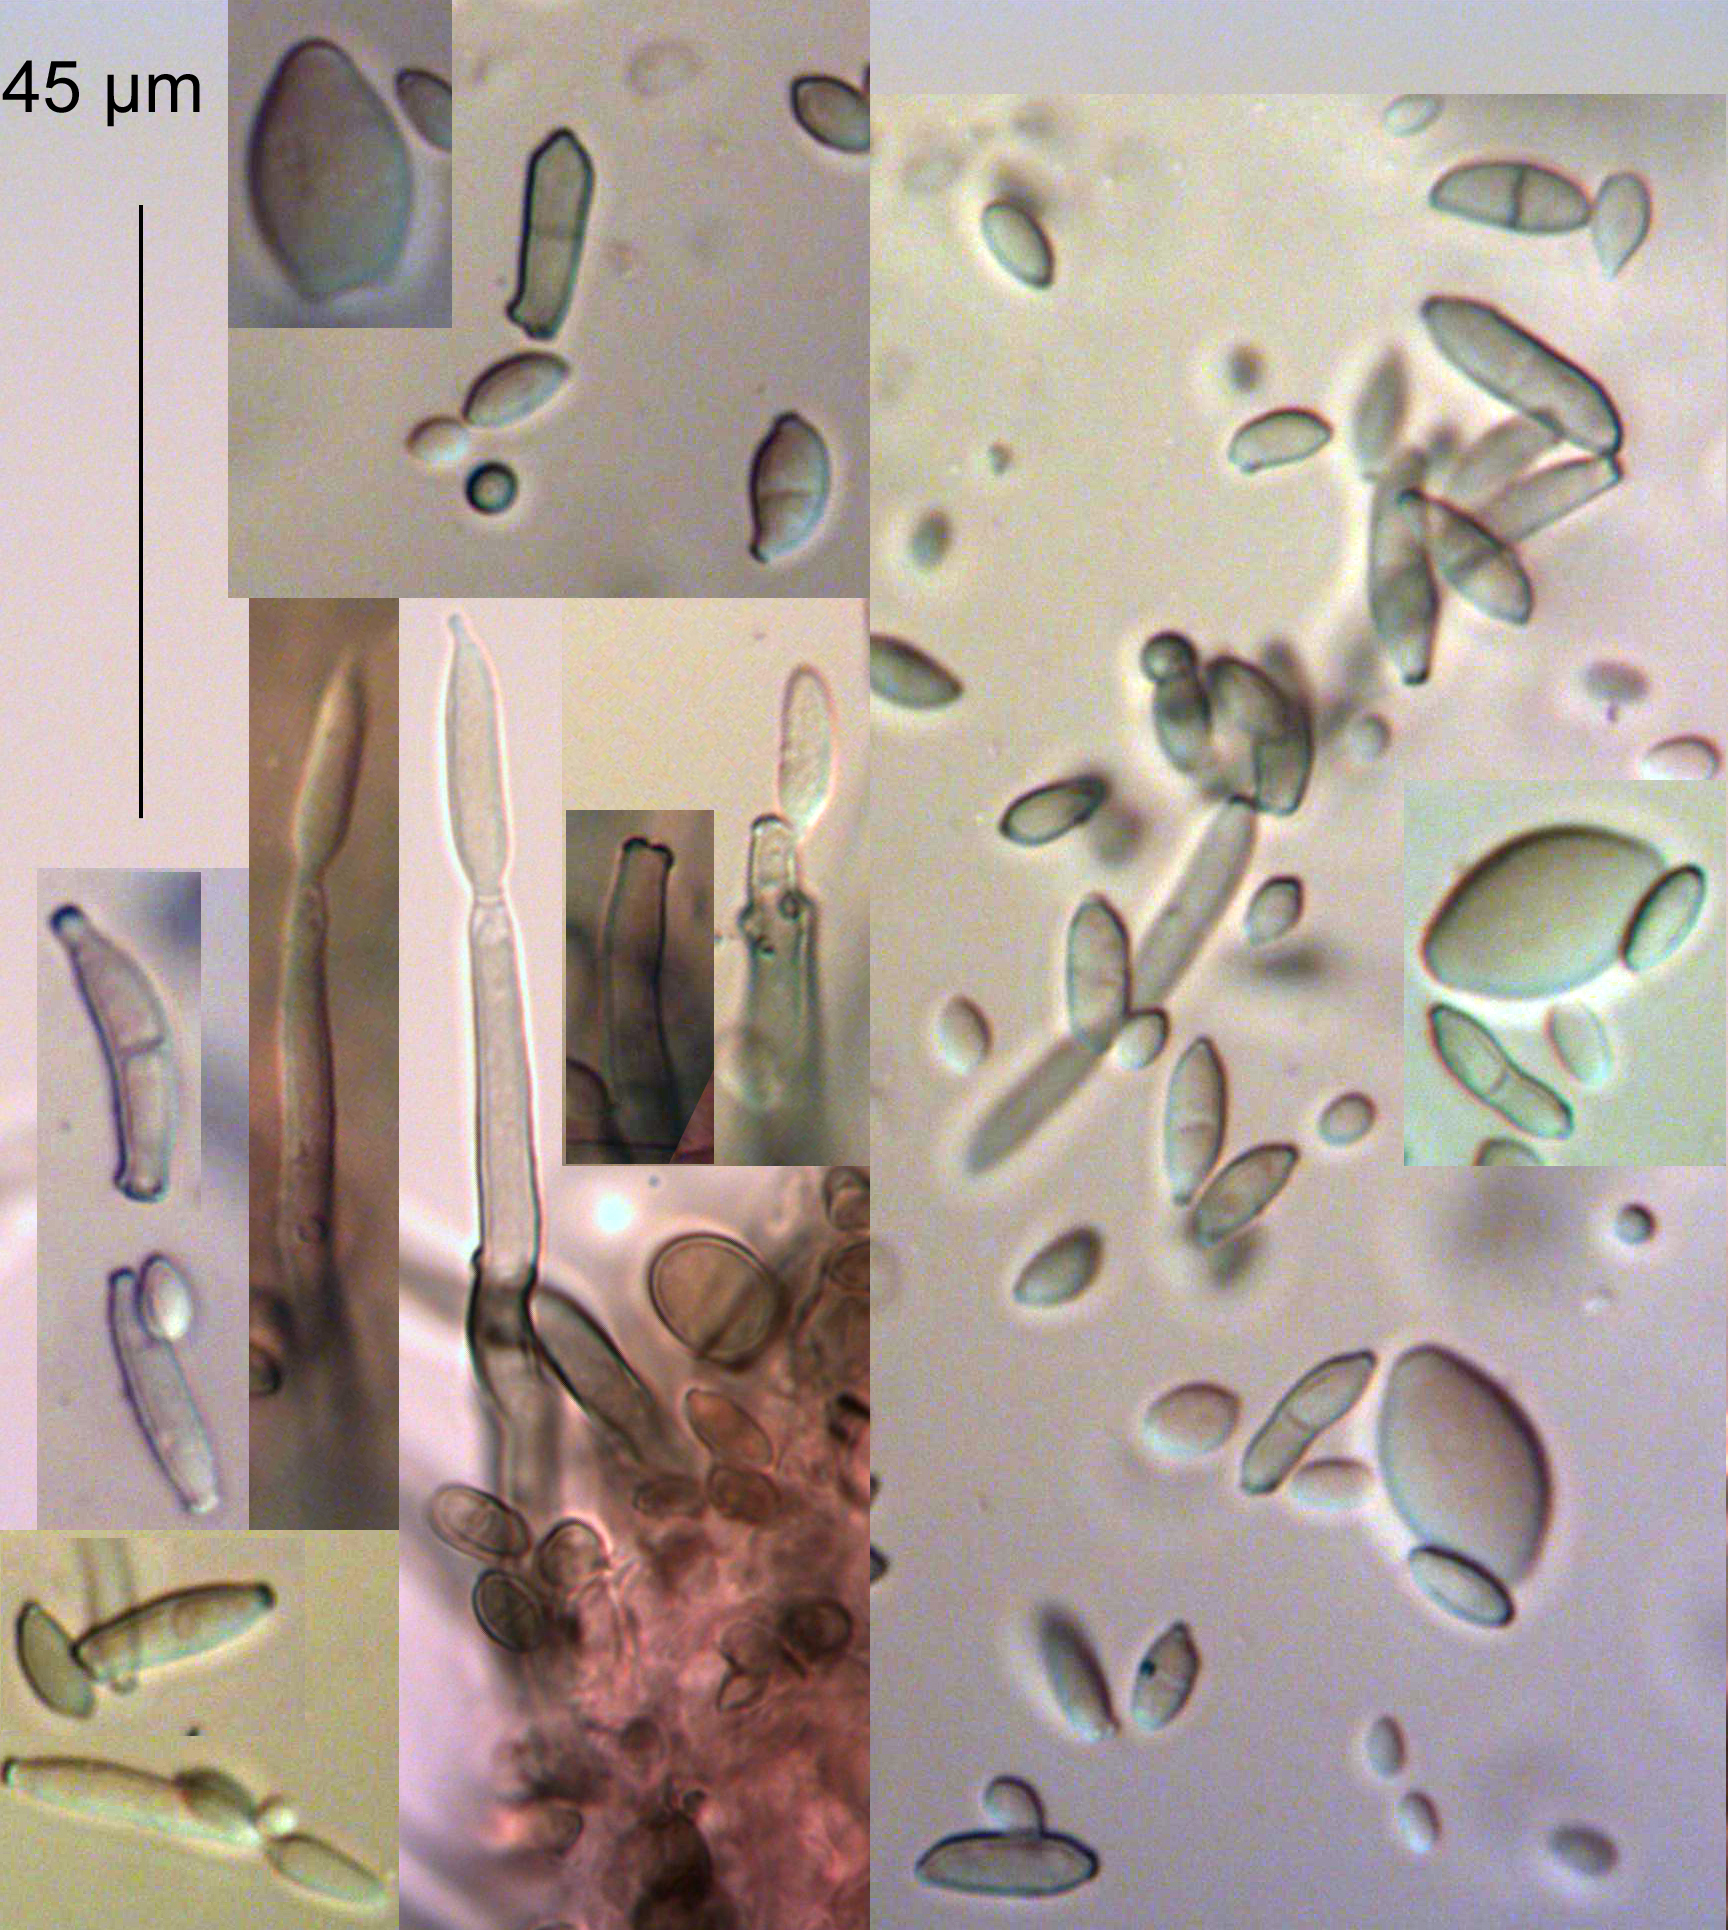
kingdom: Fungi
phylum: Ascomycota
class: Dothideomycetes
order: Capnodiales
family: Cladosporiaceae
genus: Cladosporium
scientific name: Cladosporium phyllophilum
